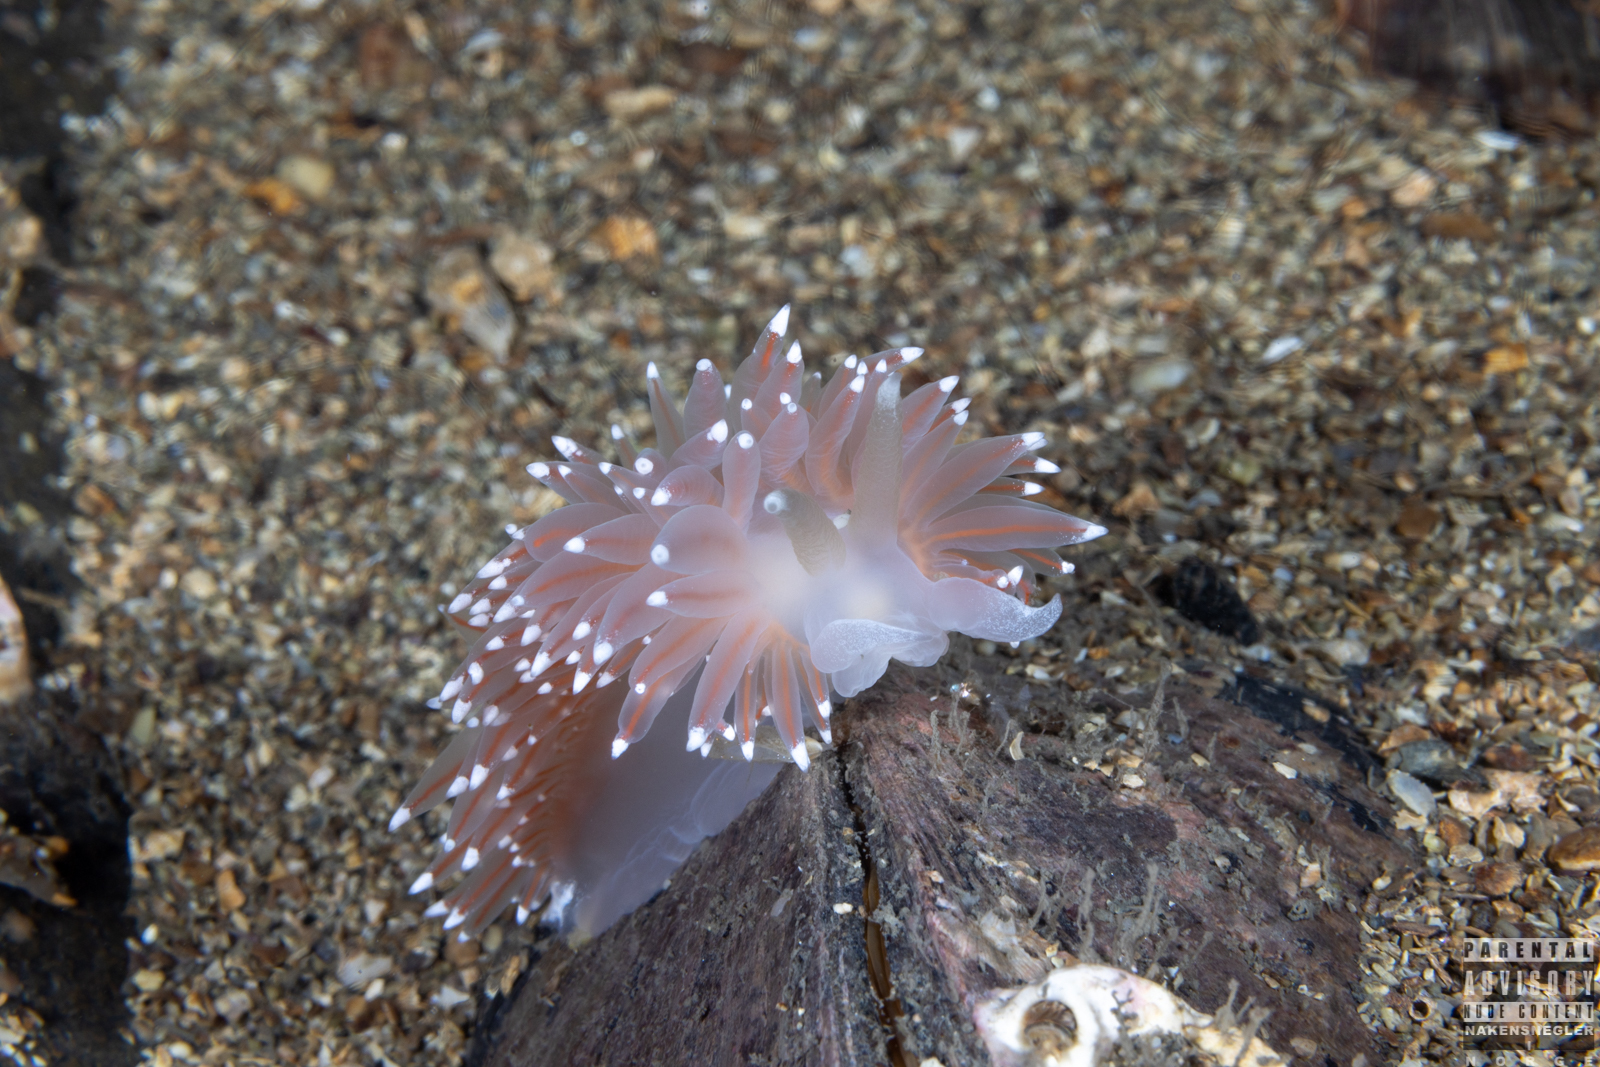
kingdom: Animalia
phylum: Mollusca
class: Gastropoda
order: Nudibranchia
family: Coryphellidae
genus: Coryphella
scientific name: Coryphella nobilis
